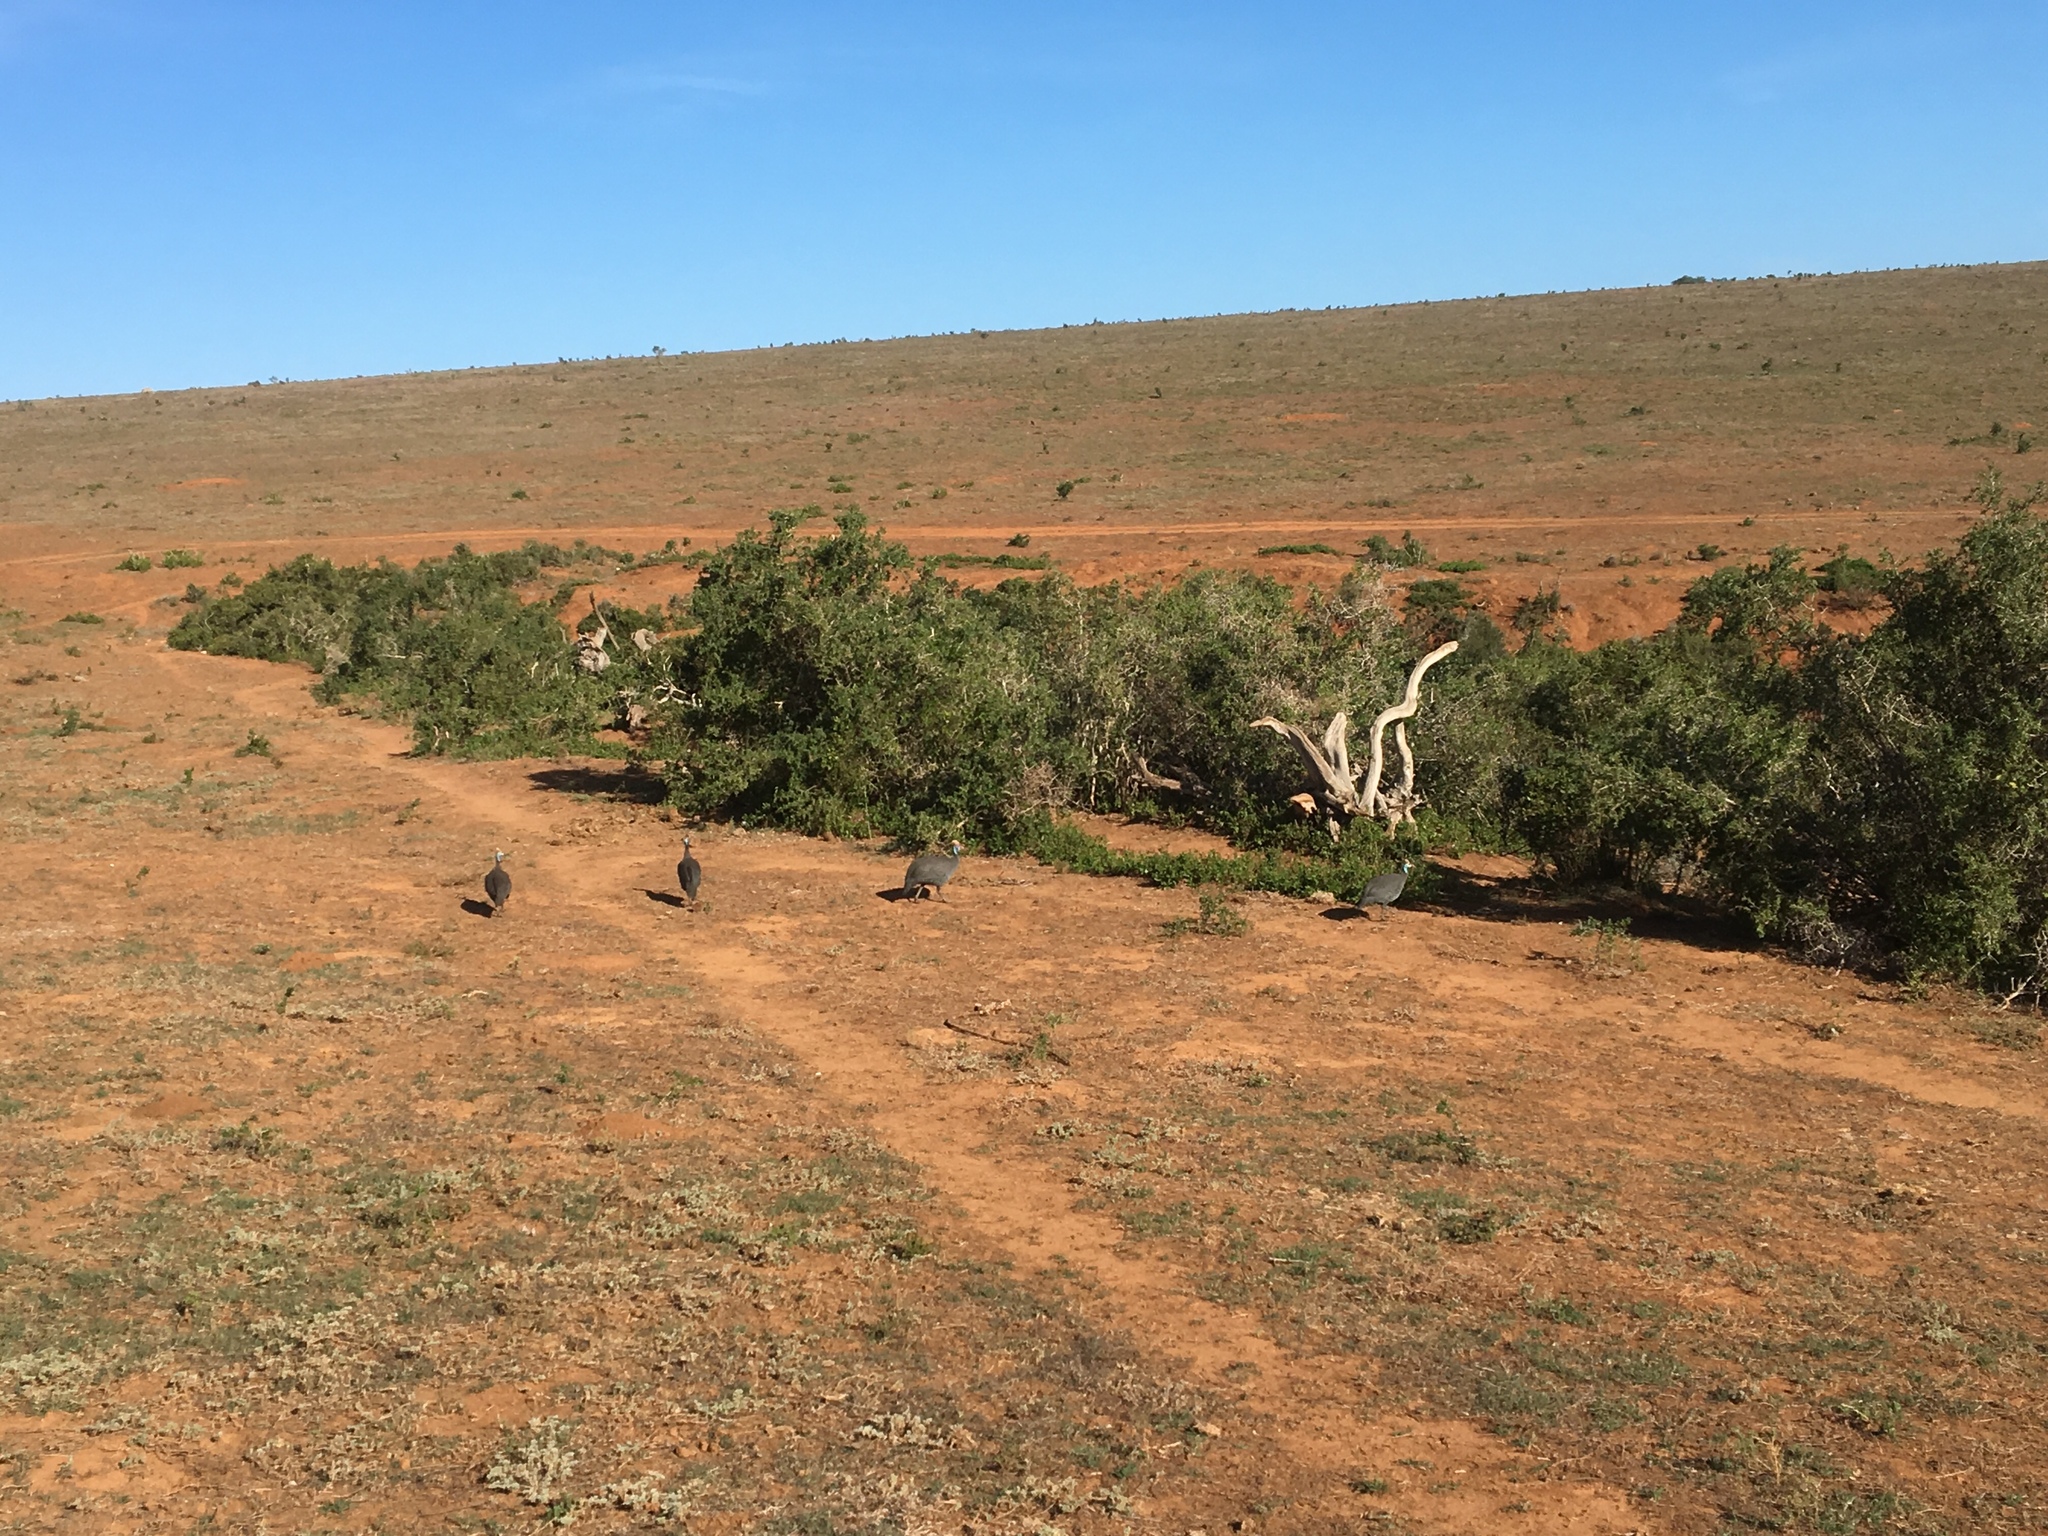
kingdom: Animalia
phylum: Chordata
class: Aves
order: Galliformes
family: Numididae
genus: Numida
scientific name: Numida meleagris
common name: Helmeted guineafowl
